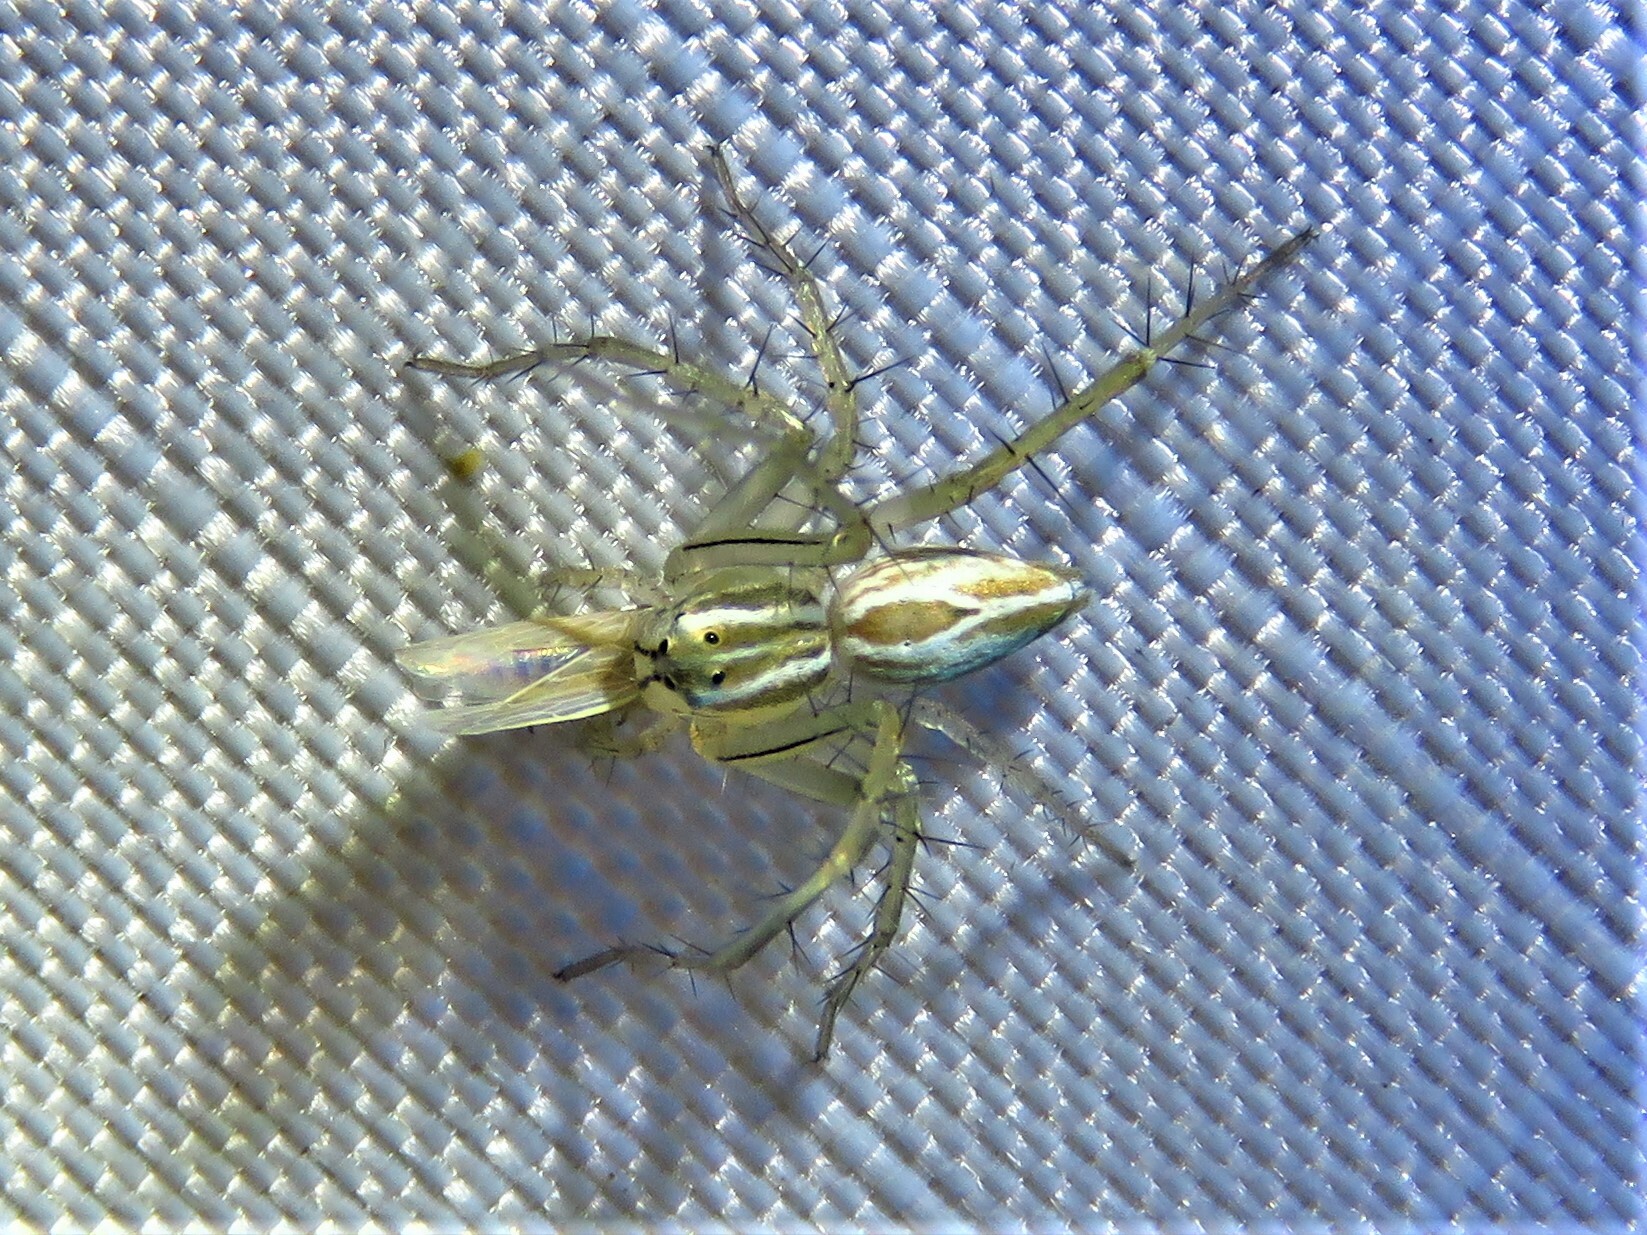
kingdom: Animalia
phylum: Arthropoda
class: Arachnida
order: Araneae
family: Oxyopidae
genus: Oxyopes
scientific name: Oxyopes salticus
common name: Lynx spiders
